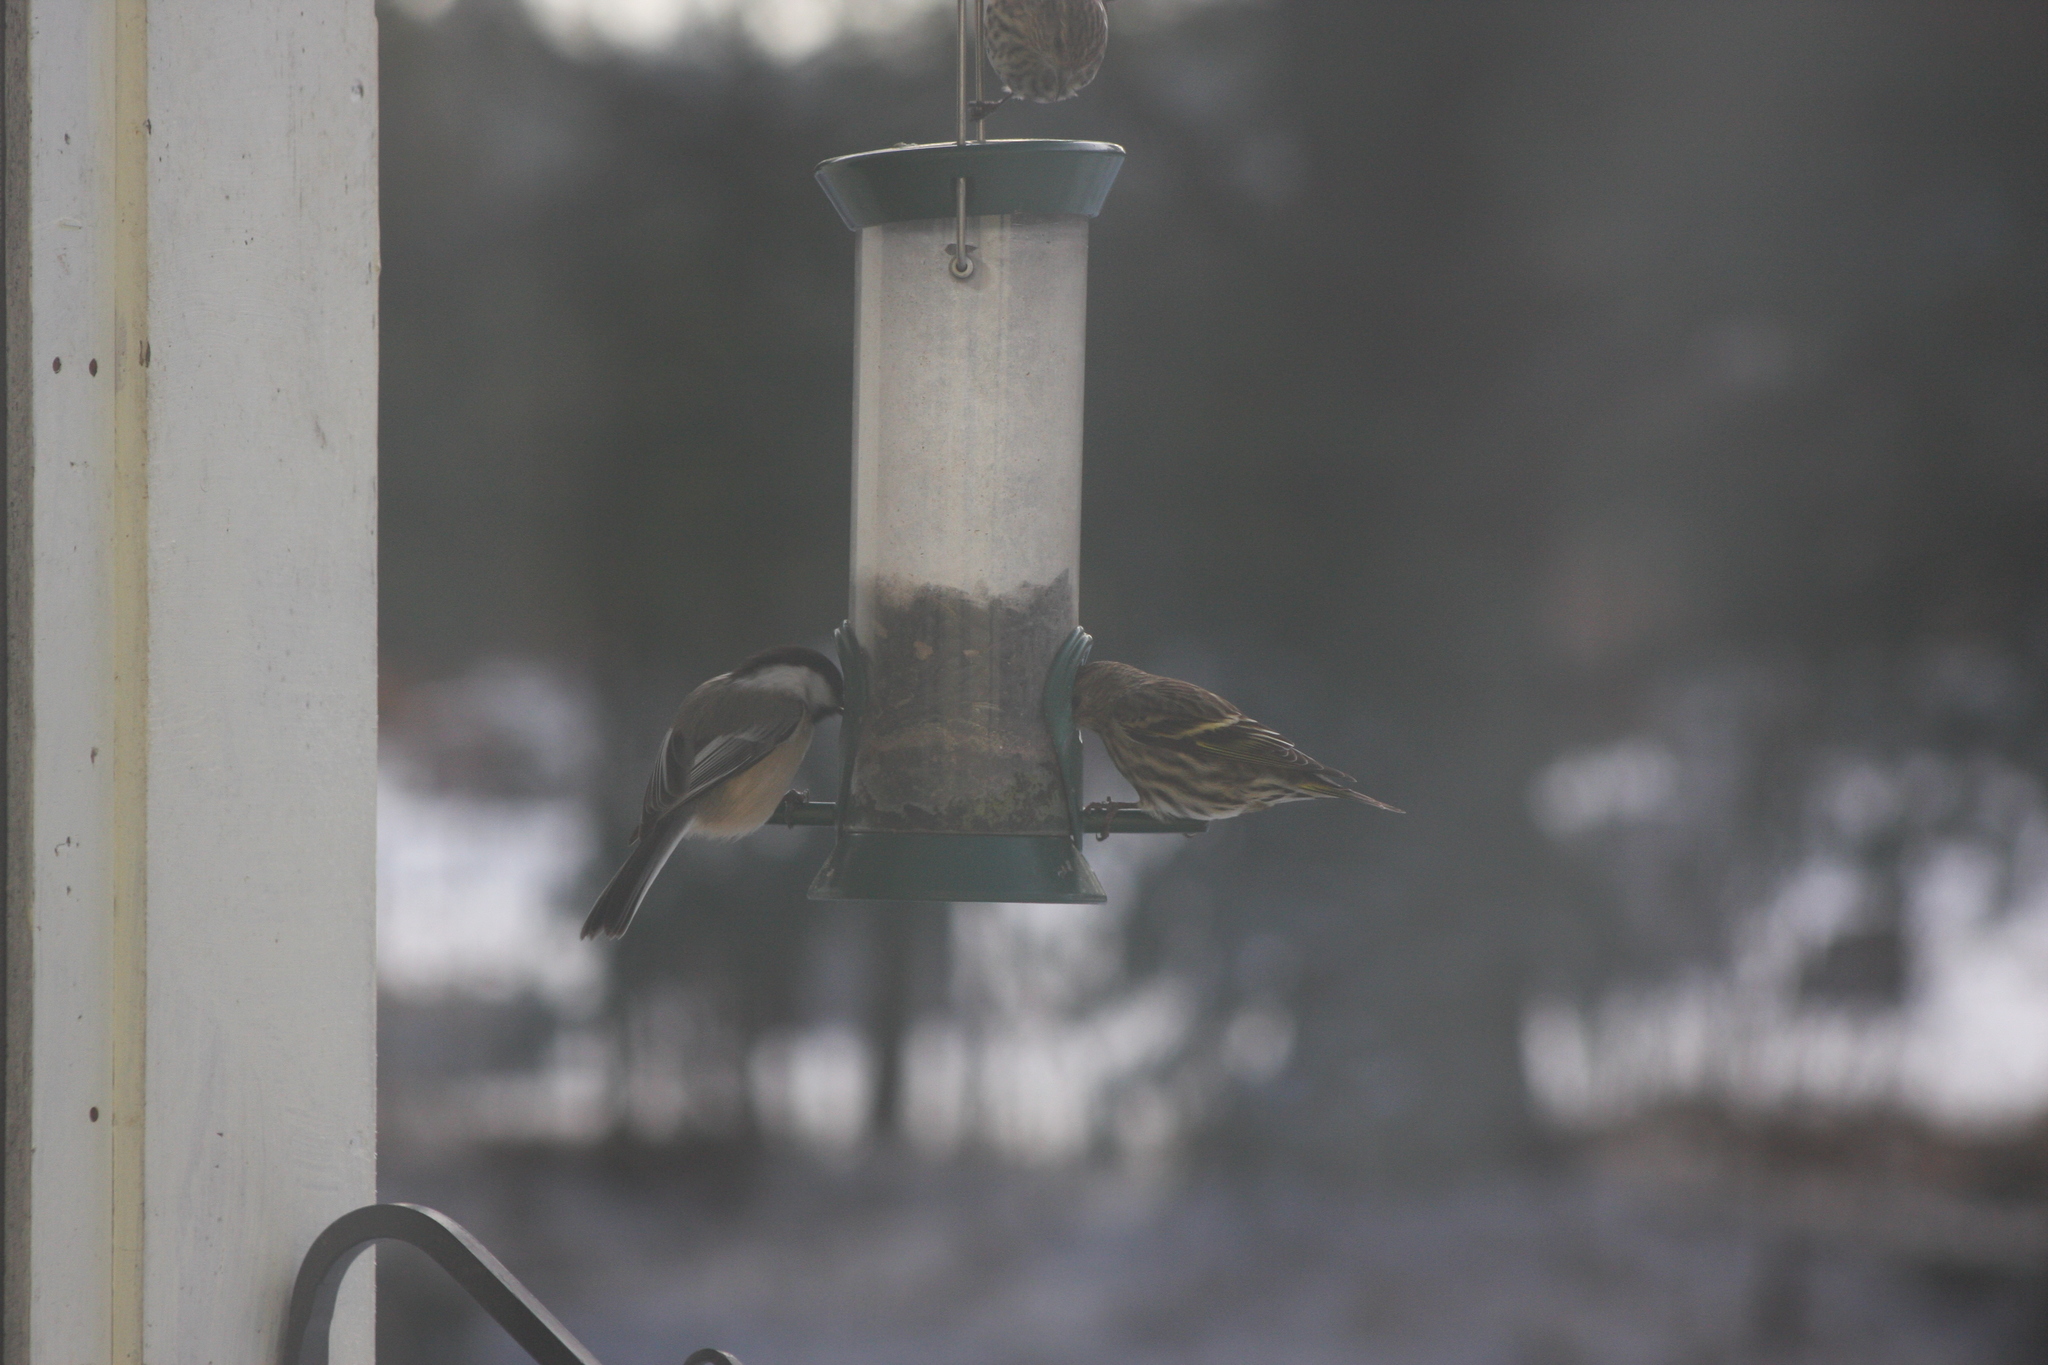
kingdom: Animalia
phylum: Chordata
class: Aves
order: Passeriformes
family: Paridae
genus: Poecile
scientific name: Poecile atricapillus
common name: Black-capped chickadee
